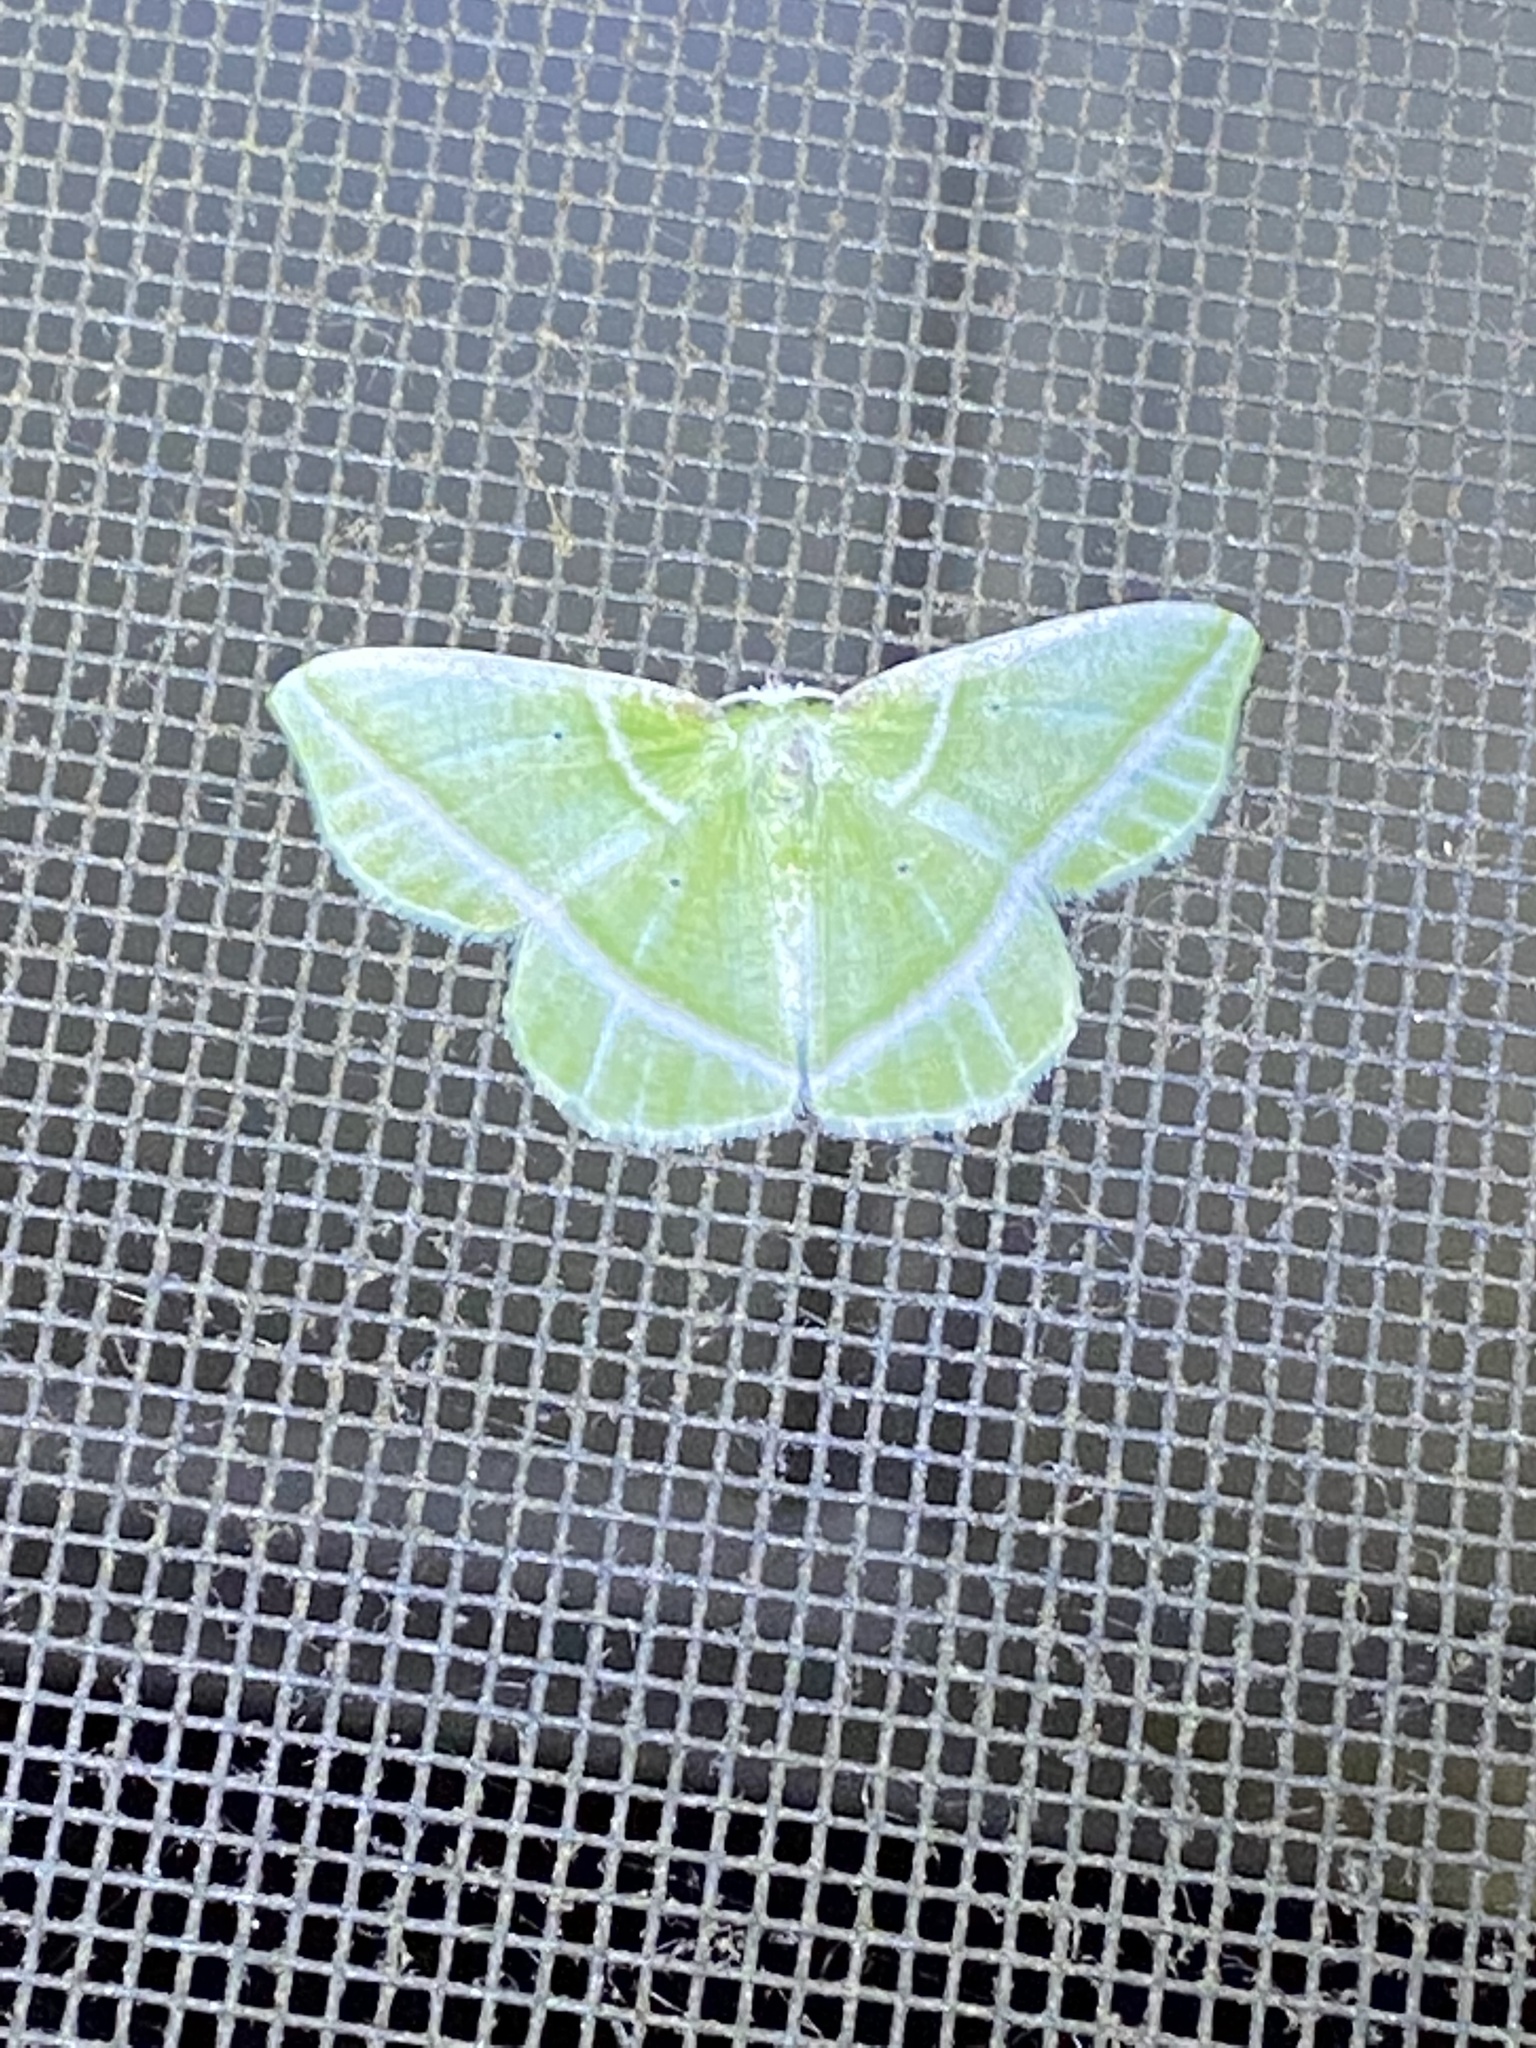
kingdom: Animalia
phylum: Arthropoda
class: Insecta
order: Lepidoptera
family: Geometridae
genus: Dichorda
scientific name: Dichorda iridaria
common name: Showy emerald
